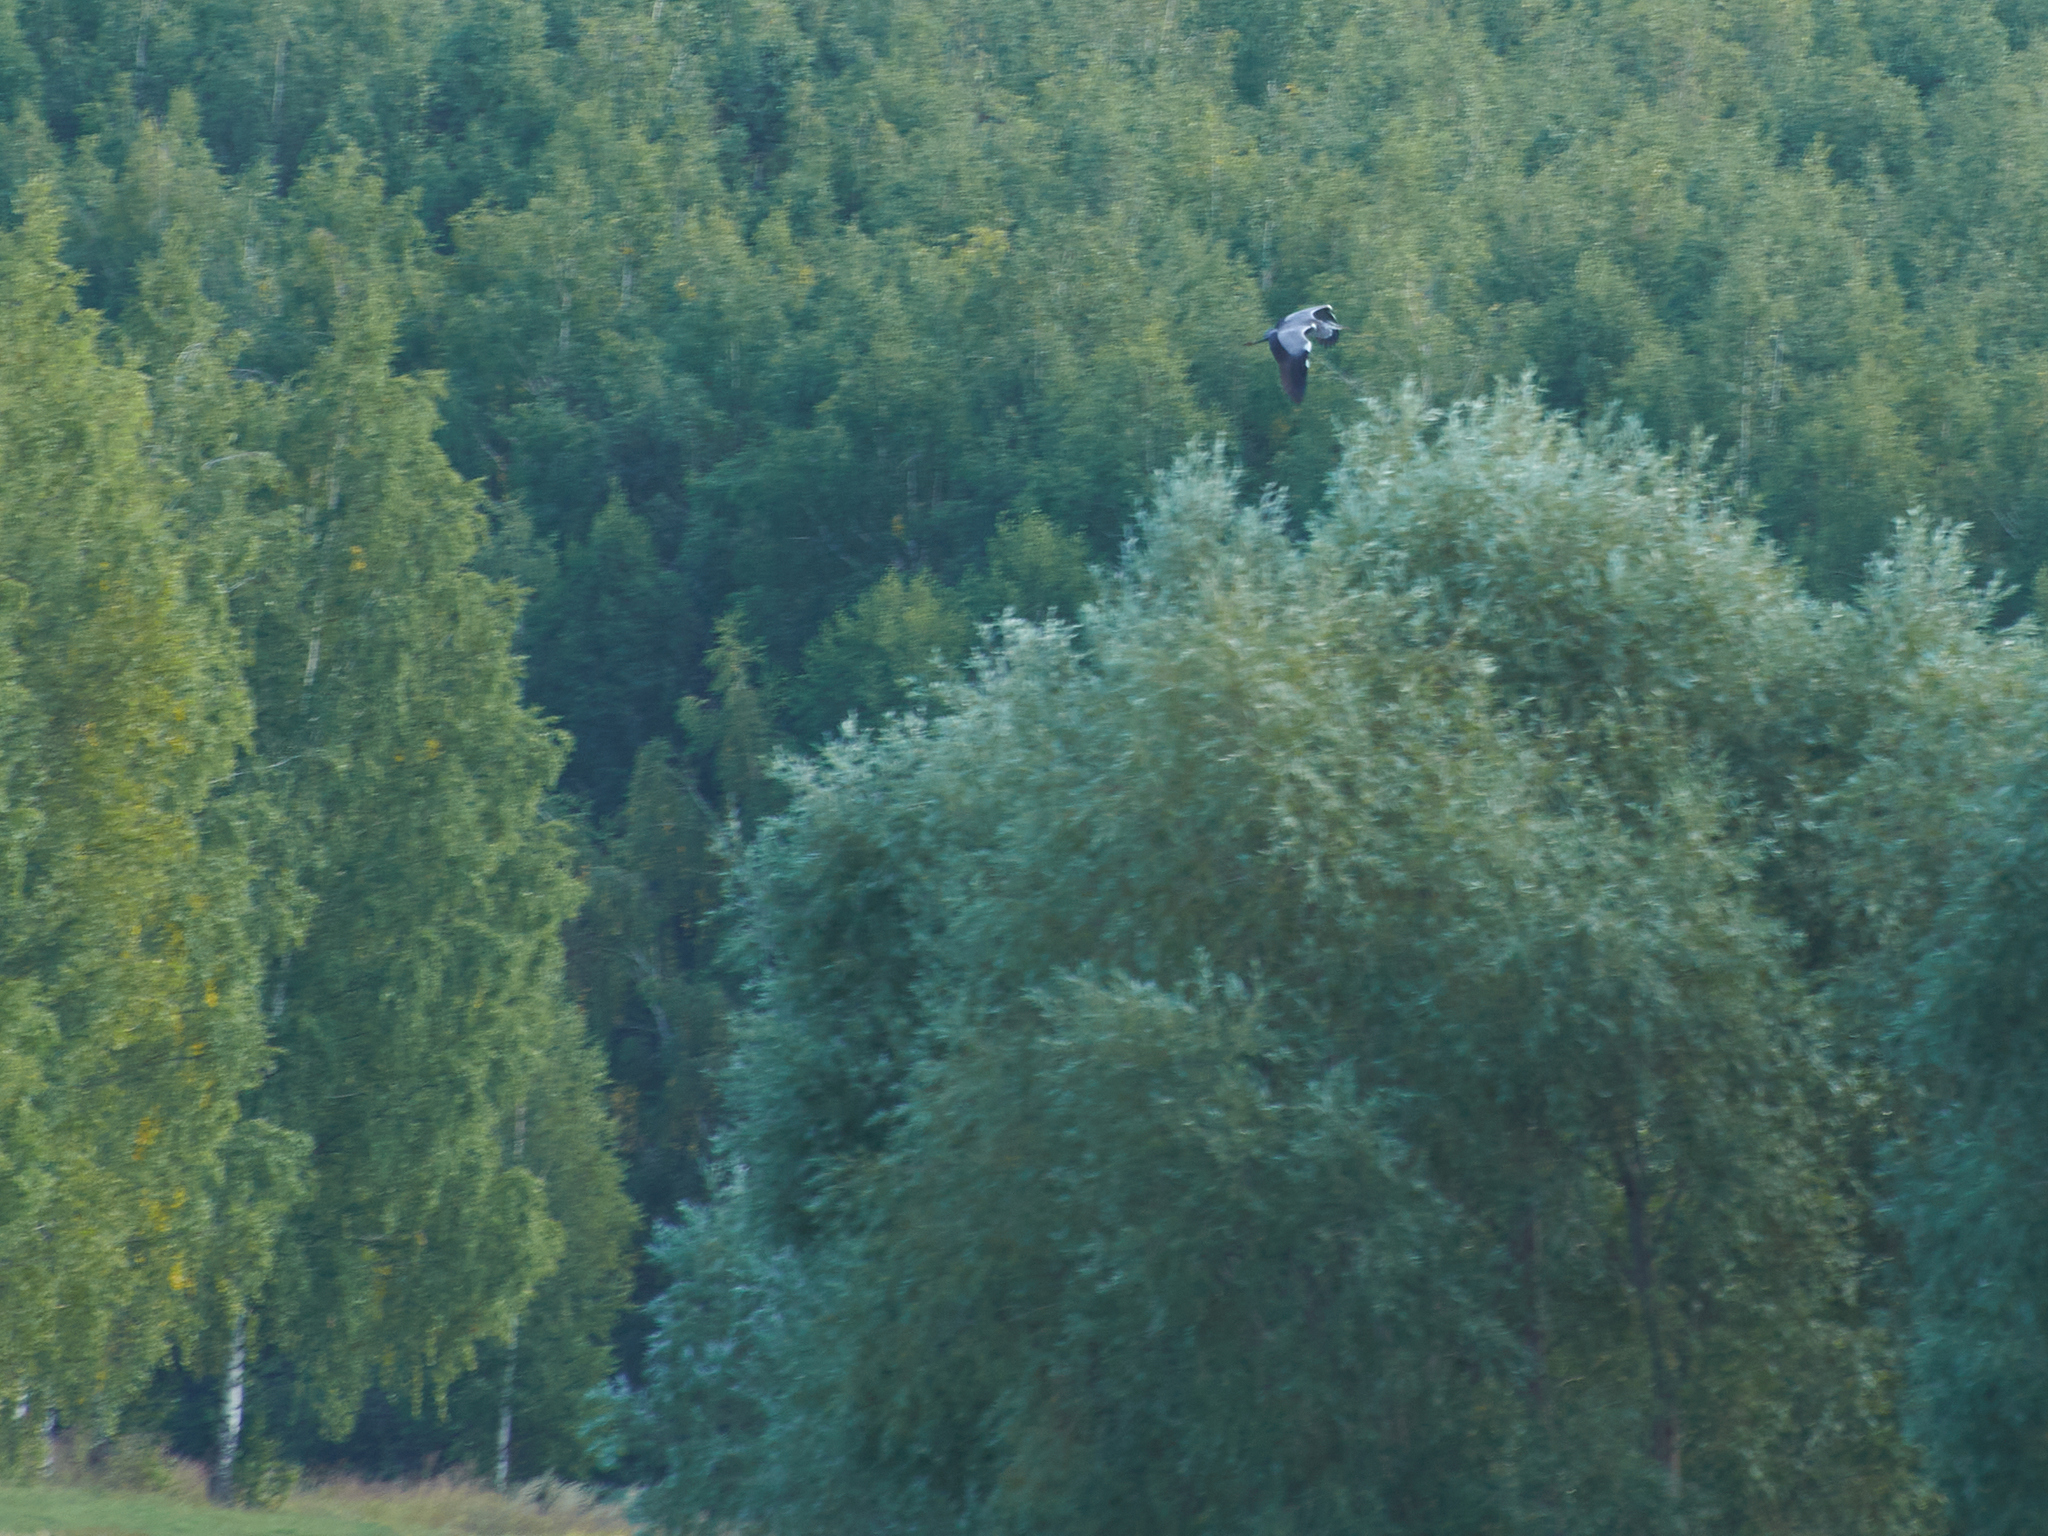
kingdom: Animalia
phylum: Chordata
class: Aves
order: Pelecaniformes
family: Ardeidae
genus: Ardea
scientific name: Ardea cinerea
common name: Grey heron
